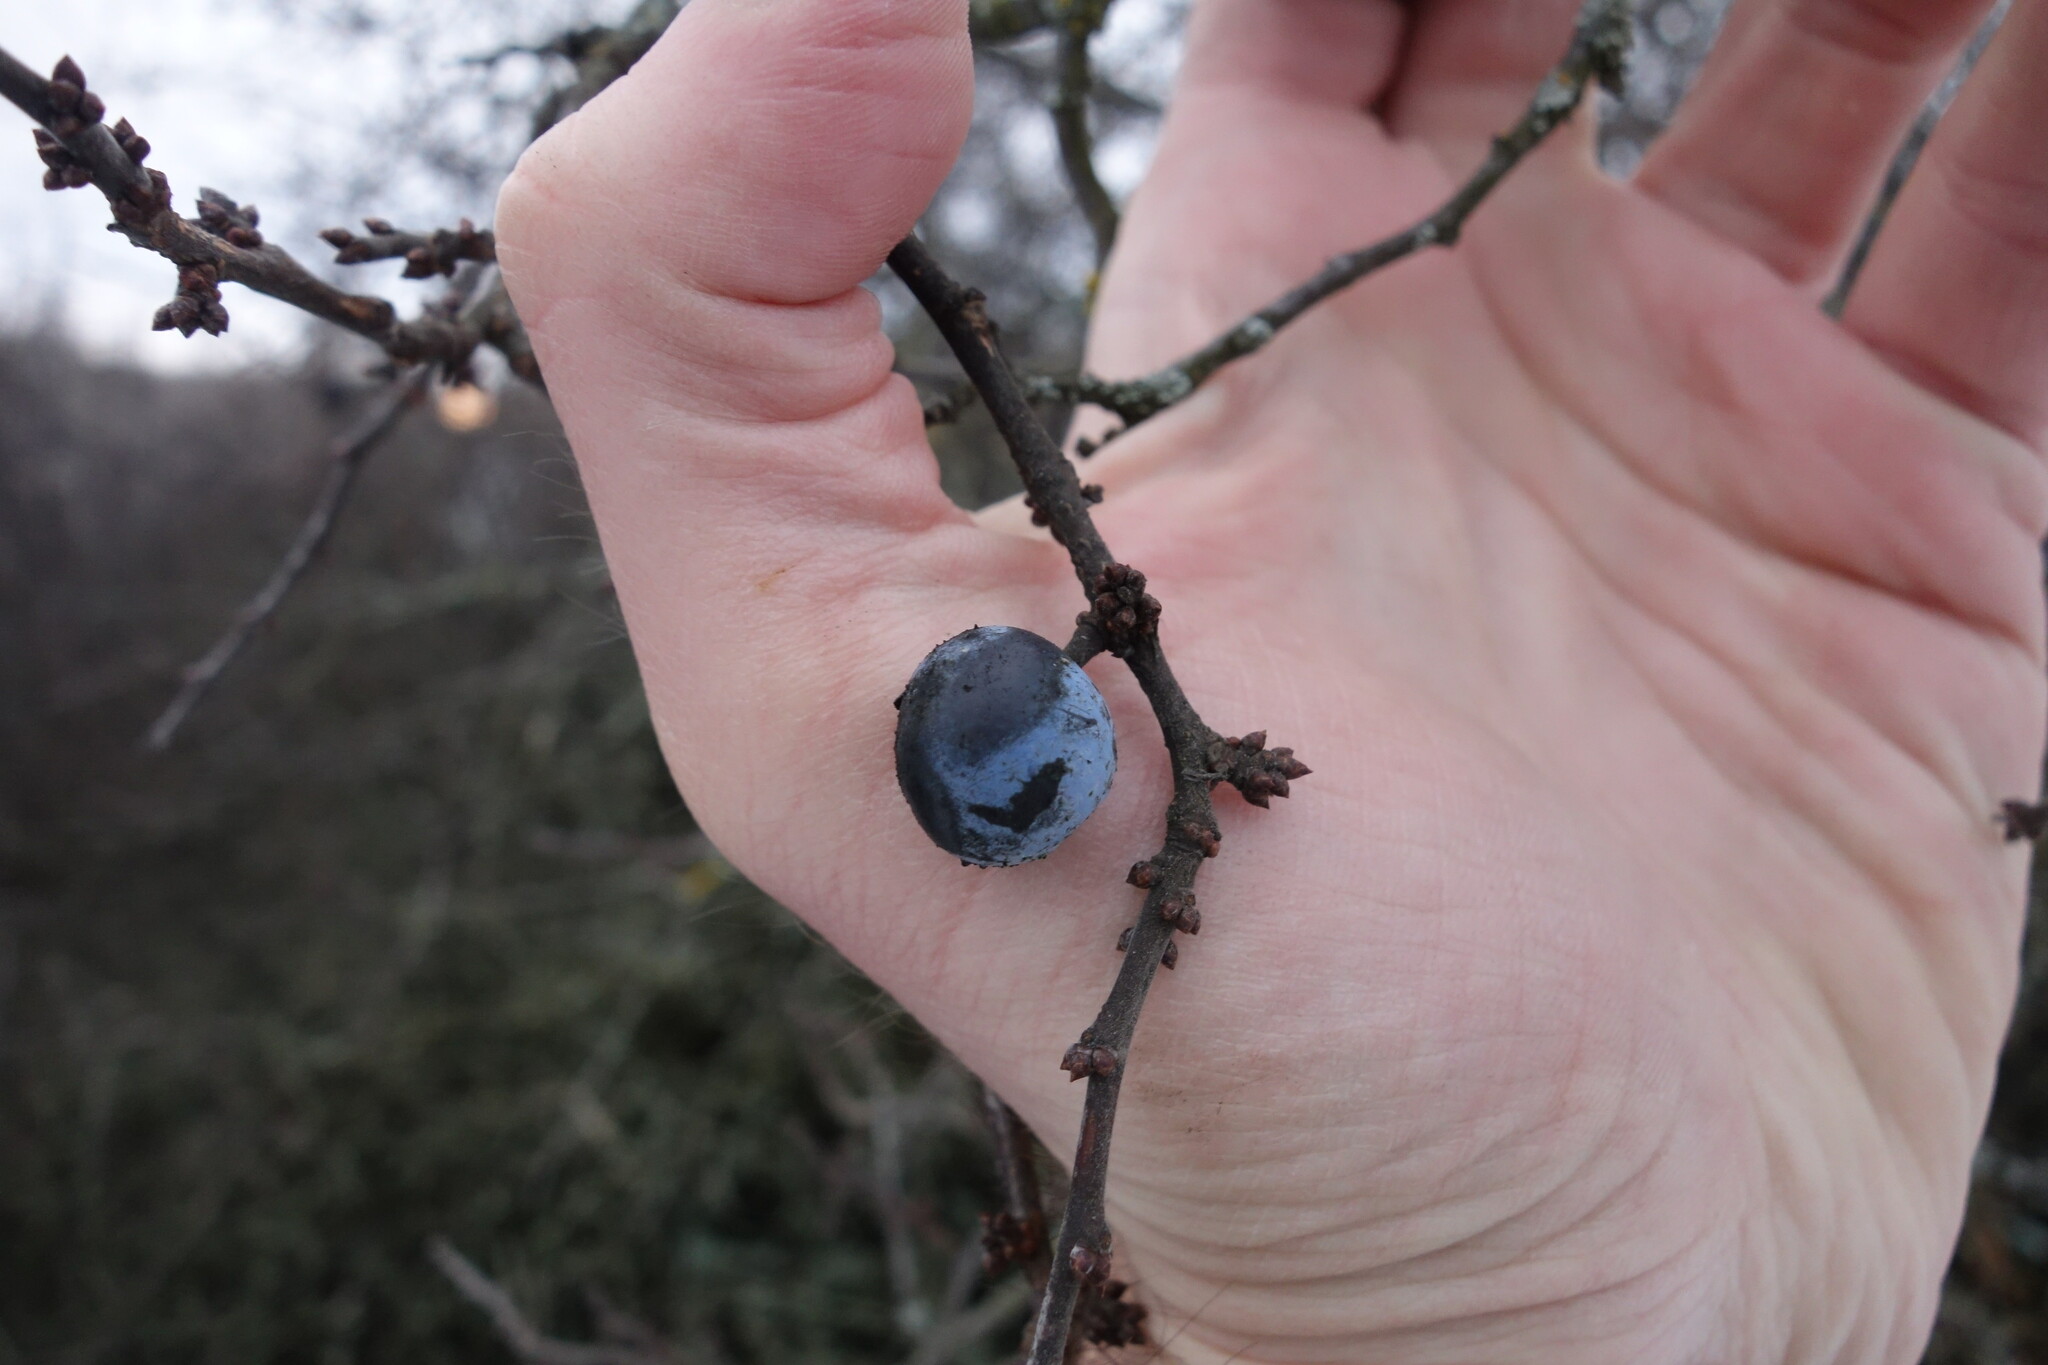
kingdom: Plantae
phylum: Tracheophyta
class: Magnoliopsida
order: Rosales
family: Rosaceae
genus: Prunus
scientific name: Prunus spinosa
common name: Blackthorn
